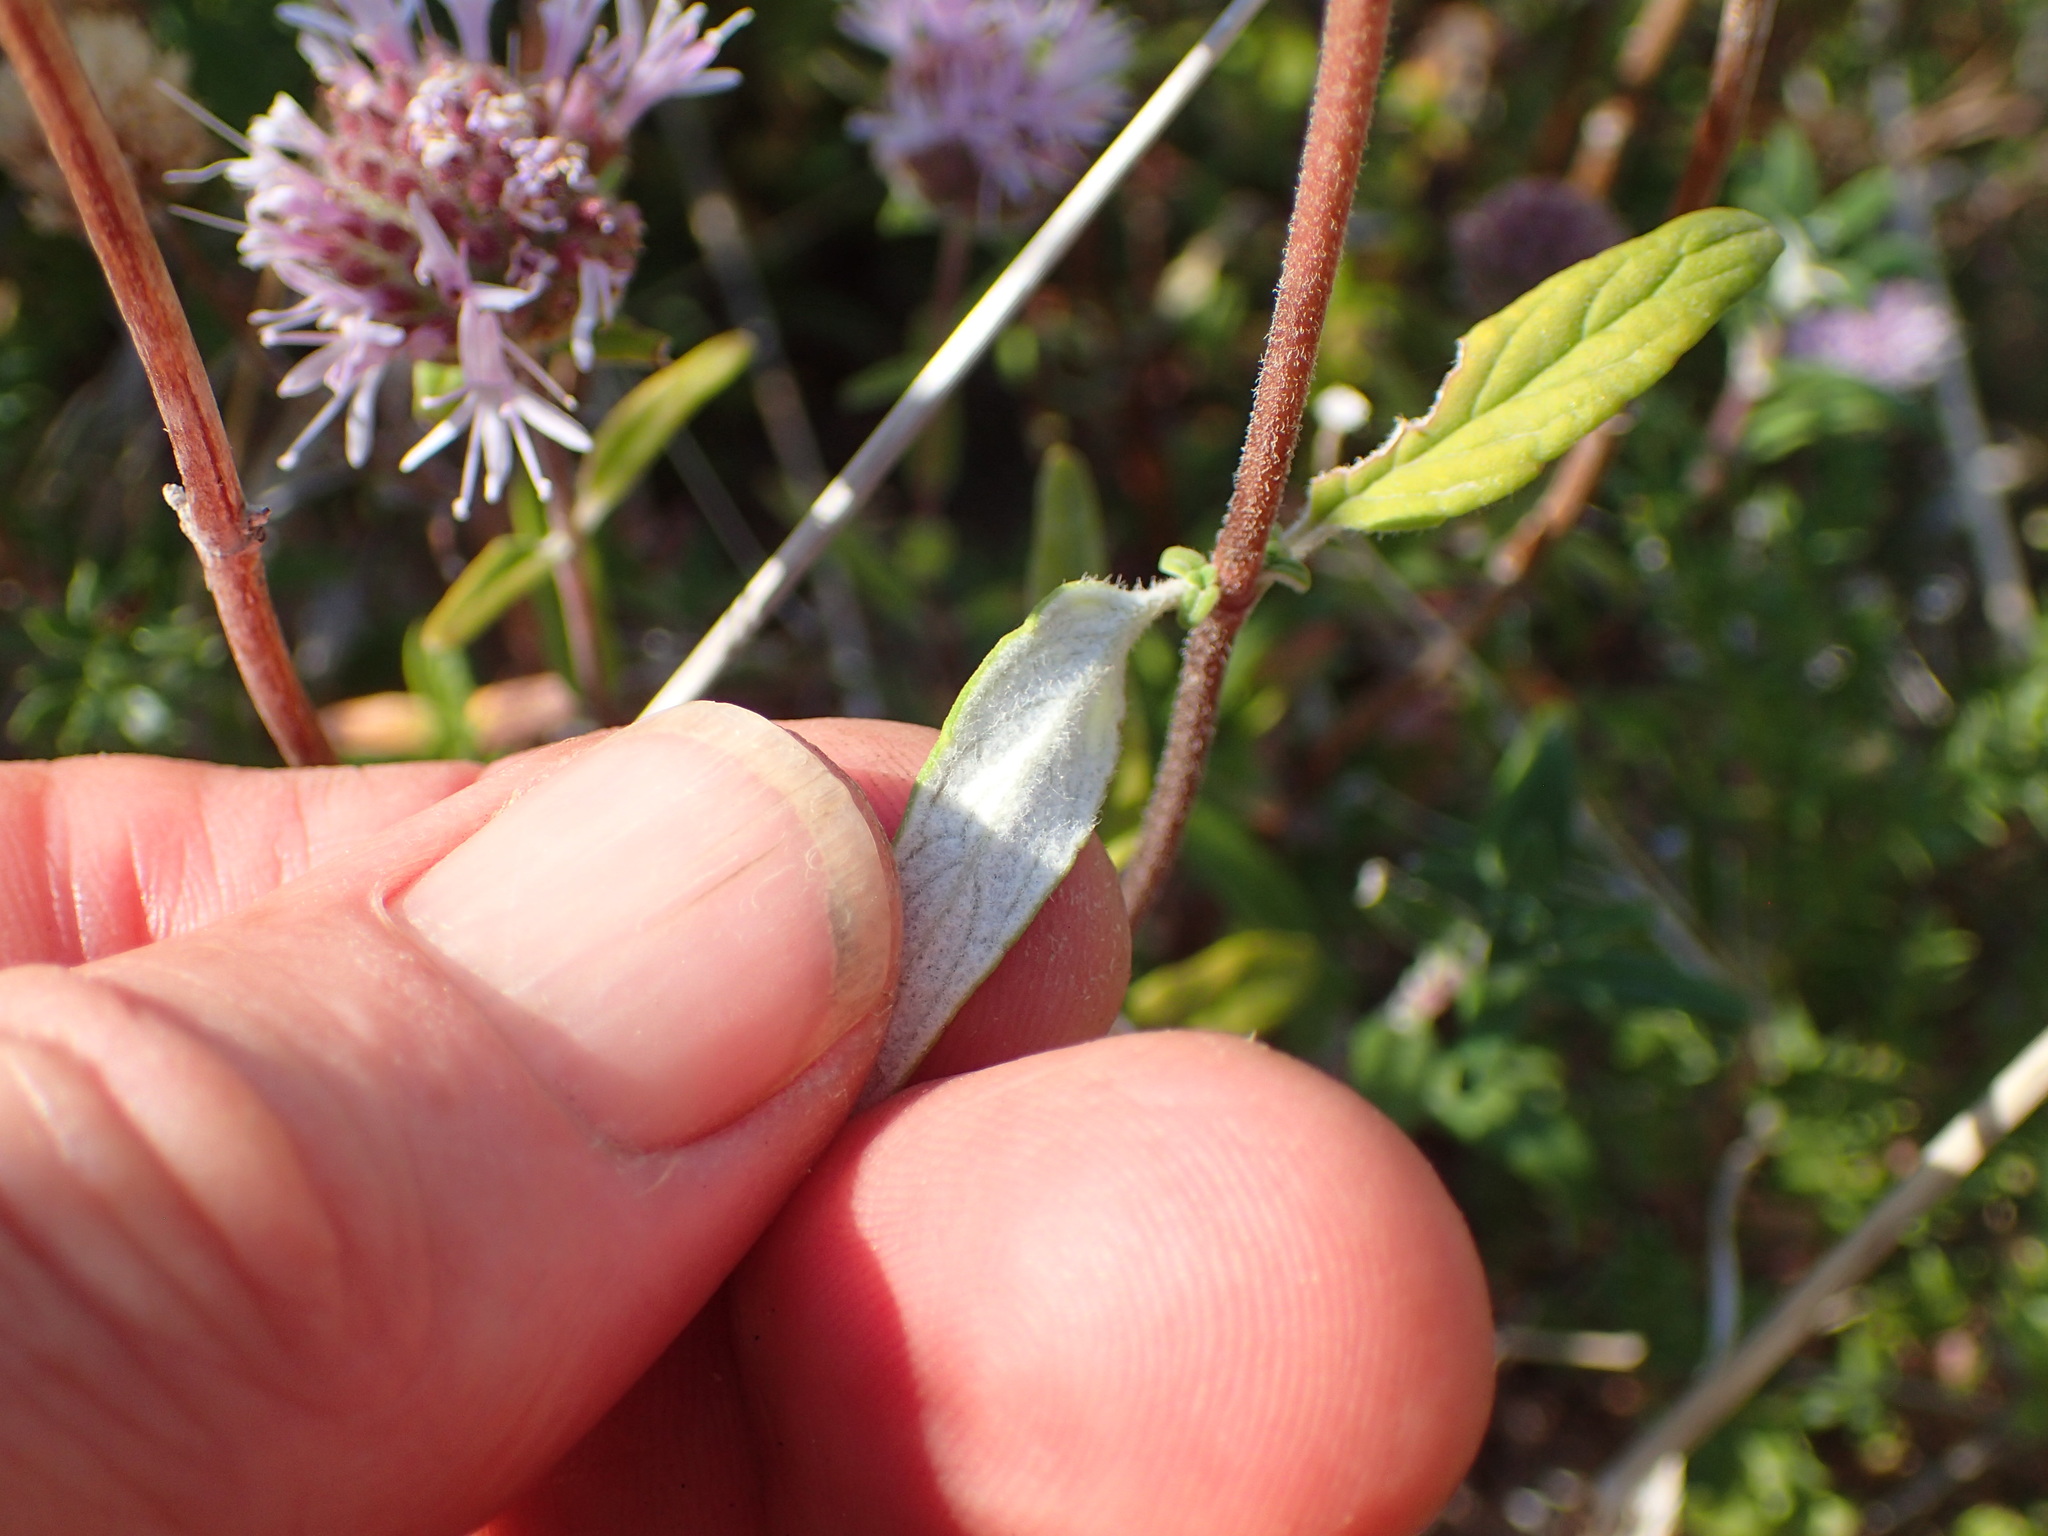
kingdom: Plantae
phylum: Tracheophyta
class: Magnoliopsida
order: Lamiales
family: Lamiaceae
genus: Monardella
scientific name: Monardella hypoleuca
